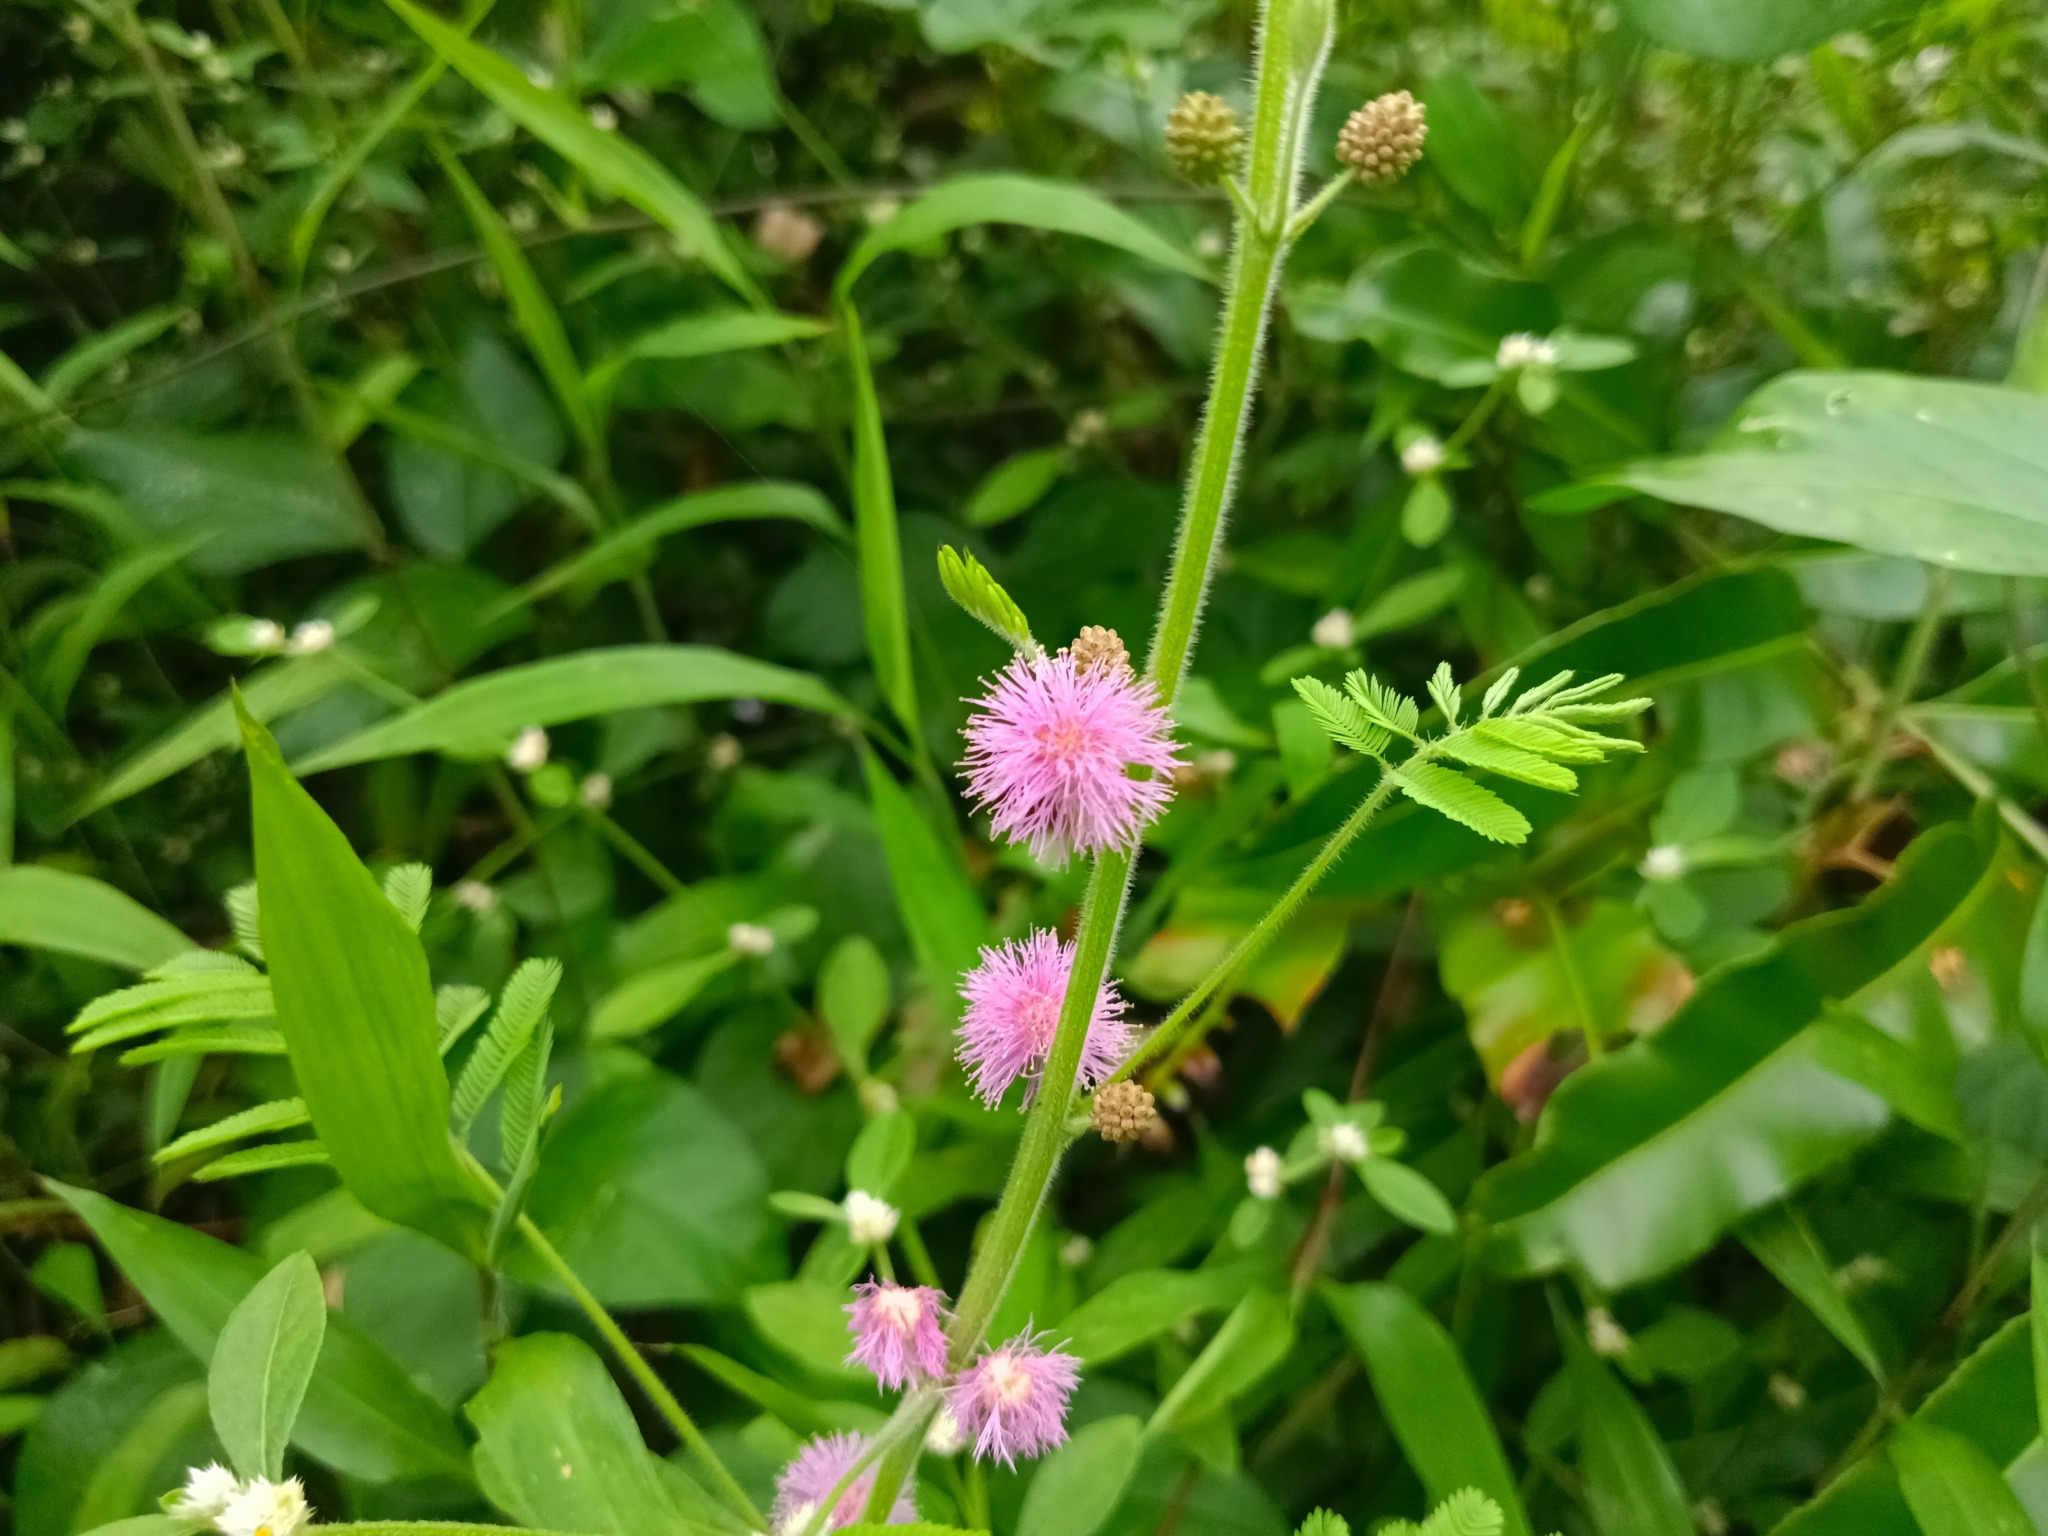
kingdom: Plantae
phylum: Tracheophyta
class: Magnoliopsida
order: Fabales
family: Fabaceae
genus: Mimosa
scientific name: Mimosa diplotricha
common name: Giant sensitive-plant
